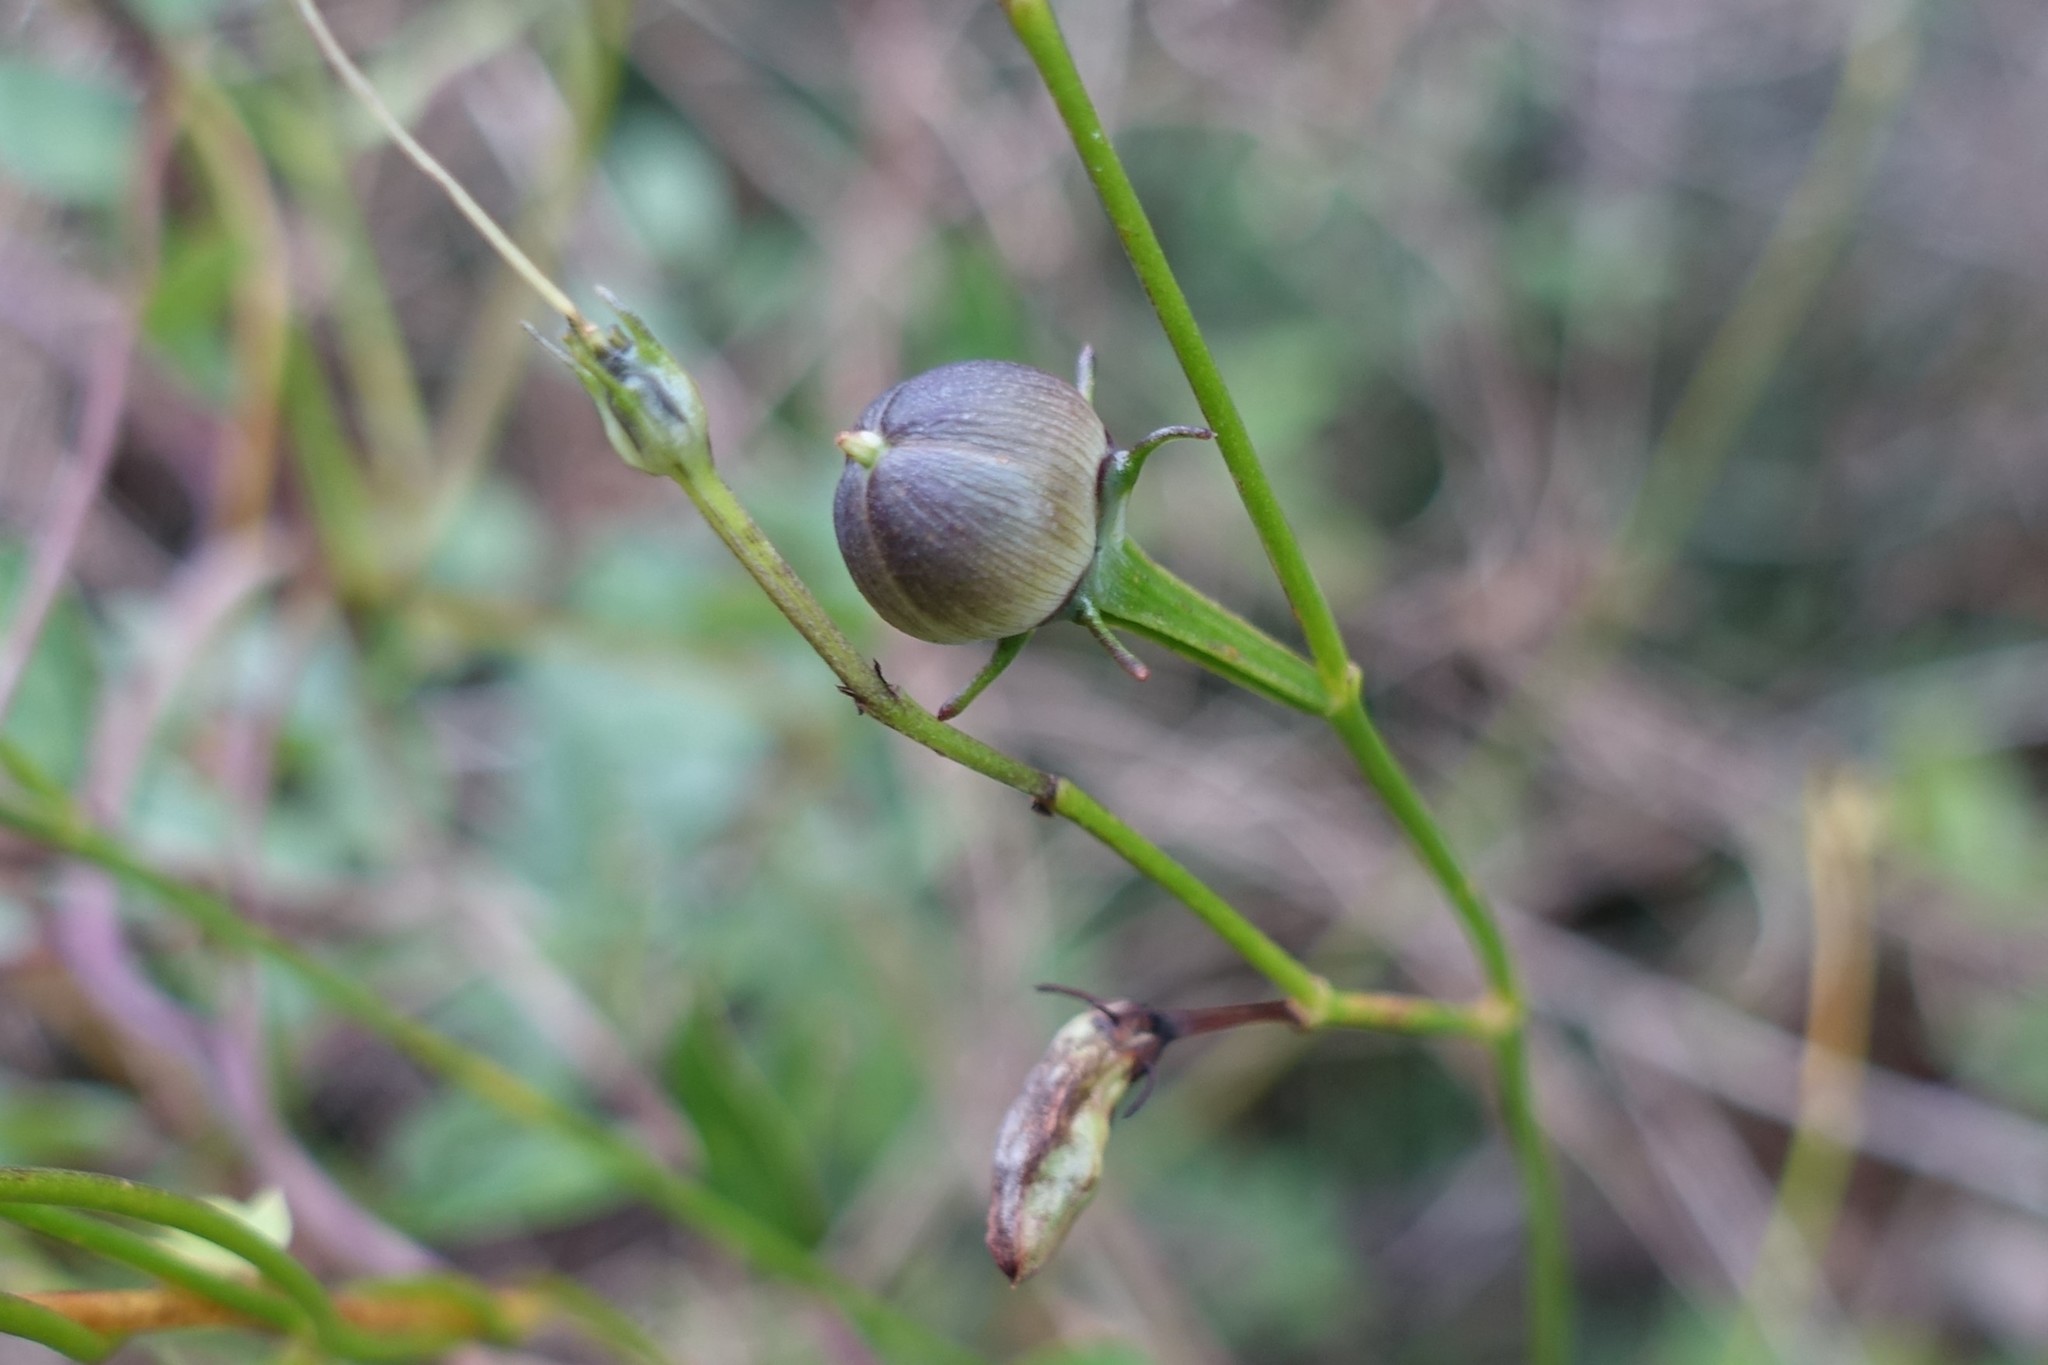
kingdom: Plantae
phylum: Tracheophyta
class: Magnoliopsida
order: Solanales
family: Convolvulaceae
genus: Ipomoea
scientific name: Ipomoea hederifolia
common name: Ivy-leaf morning-glory
